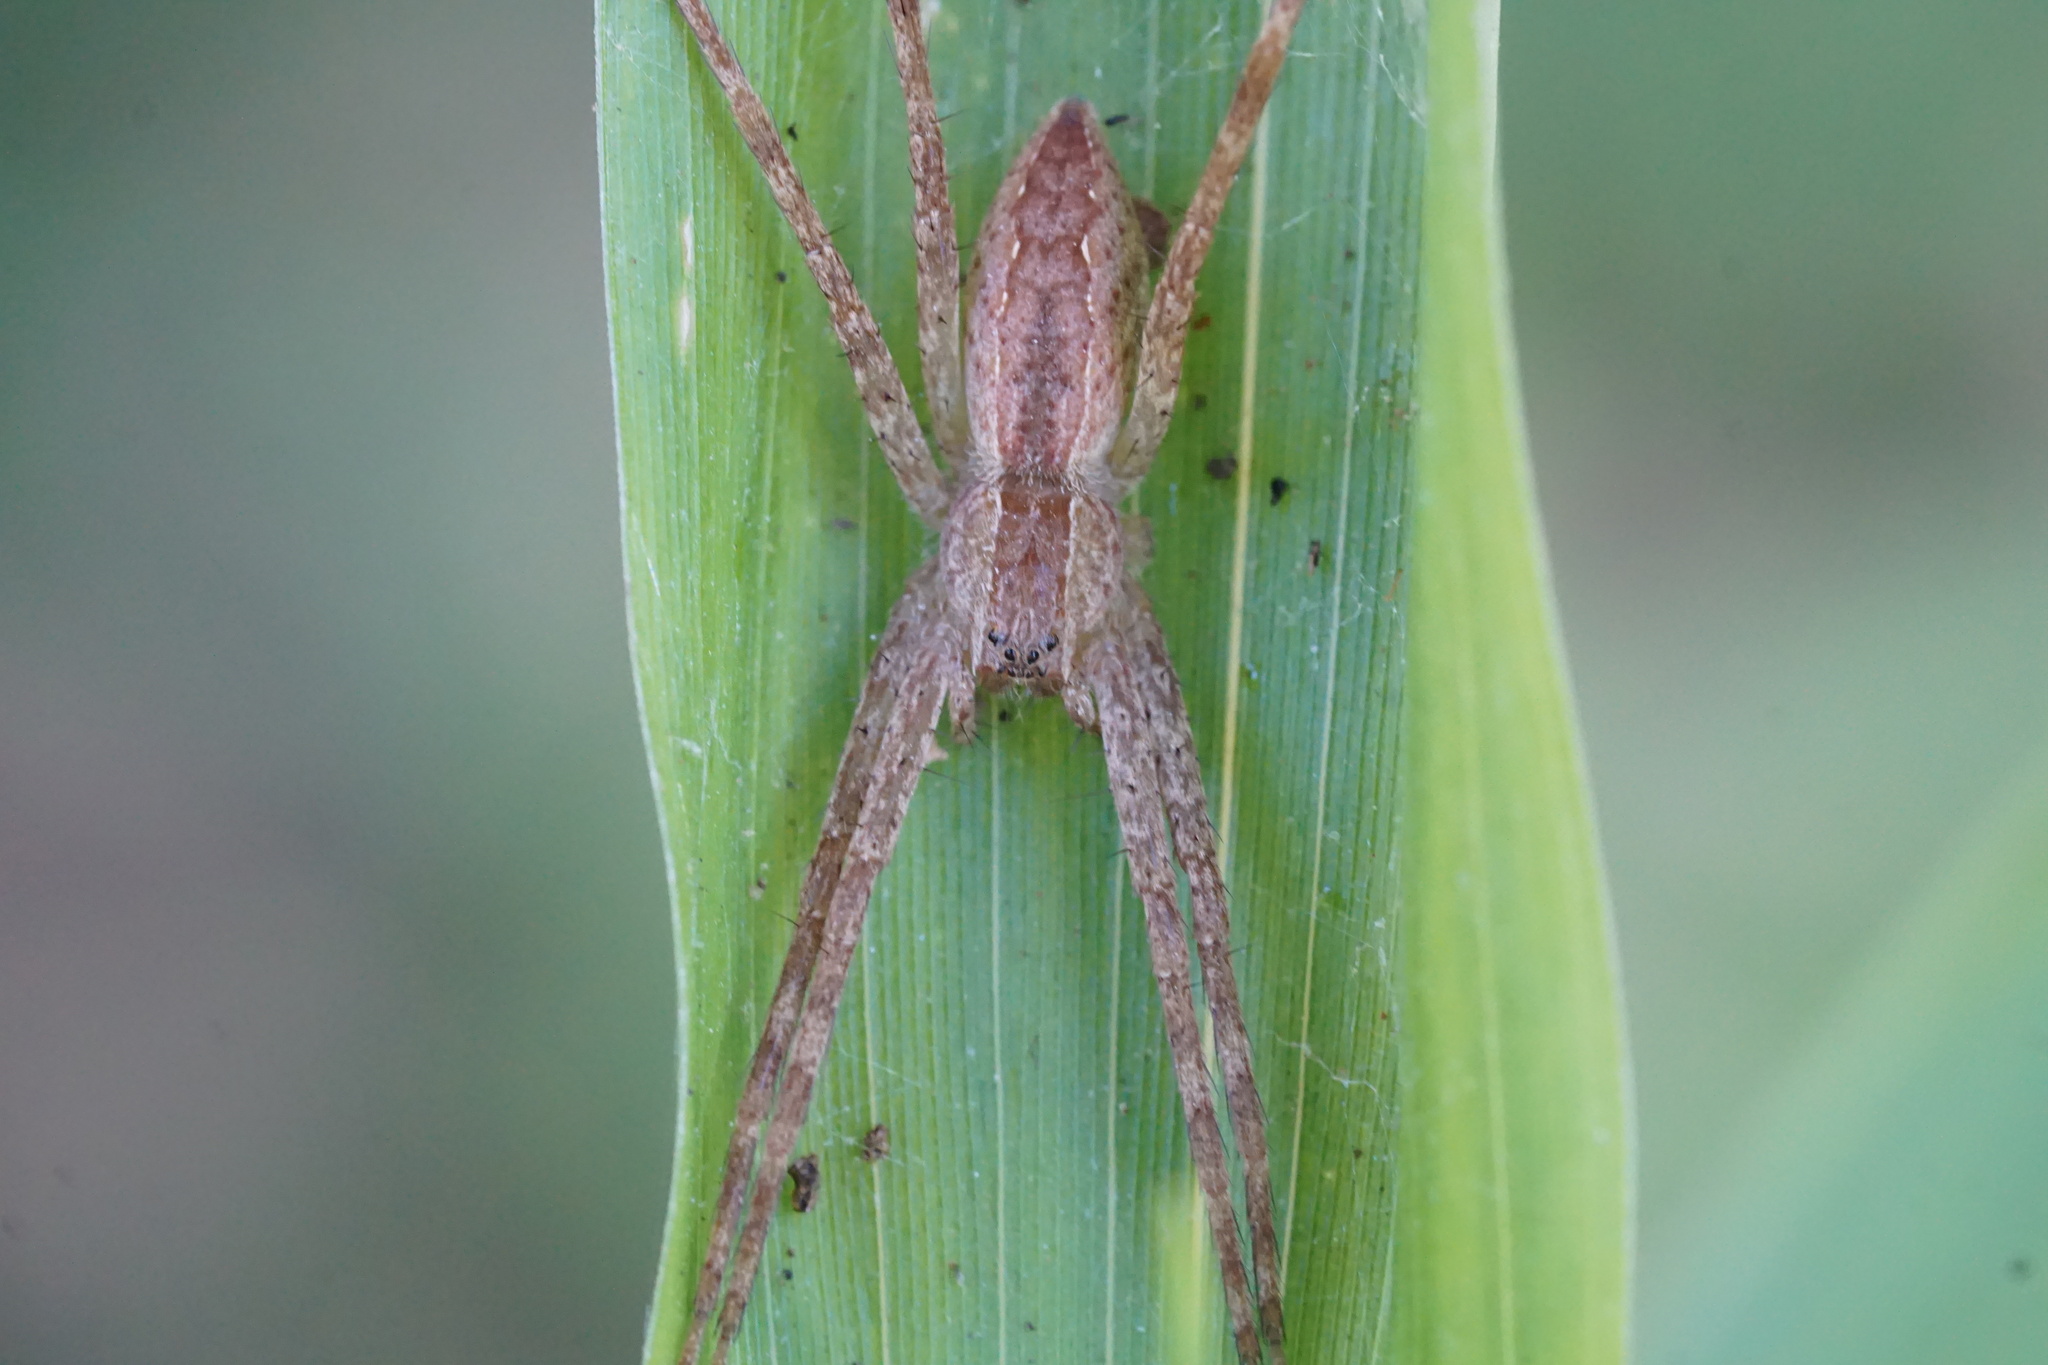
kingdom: Animalia
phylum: Arthropoda
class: Arachnida
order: Araneae
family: Pisauridae
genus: Pisaurina
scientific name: Pisaurina mira
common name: American nursery web spider
